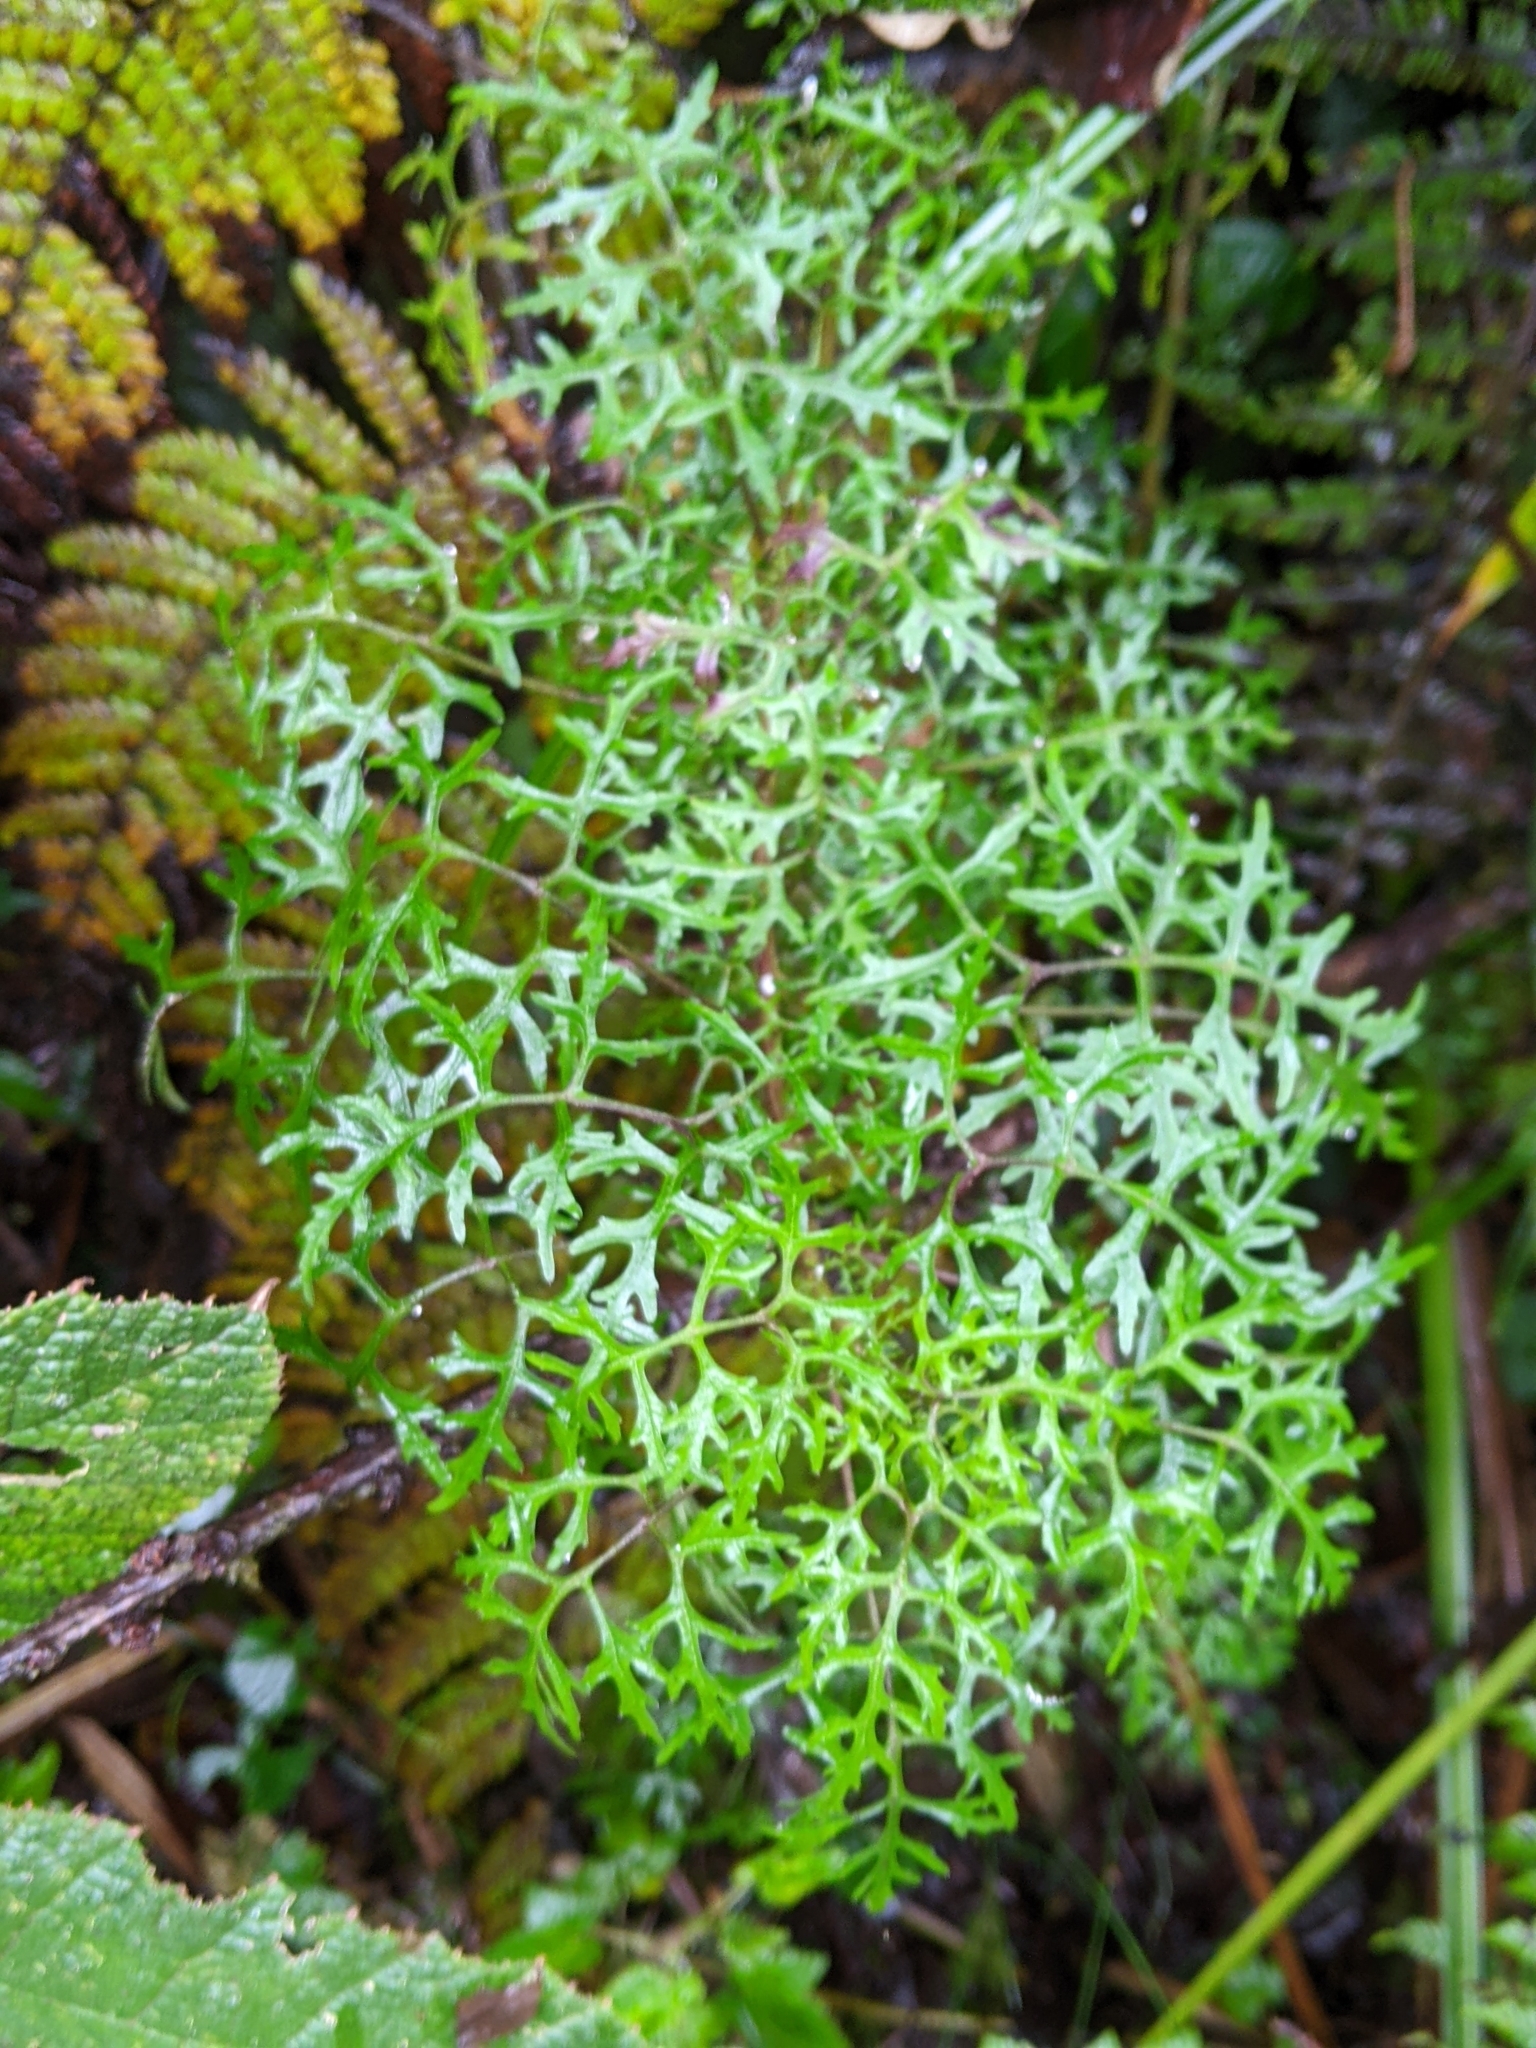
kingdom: Plantae
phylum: Tracheophyta
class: Magnoliopsida
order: Asterales
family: Campanulaceae
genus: Centropogon
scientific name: Centropogon dissectus
